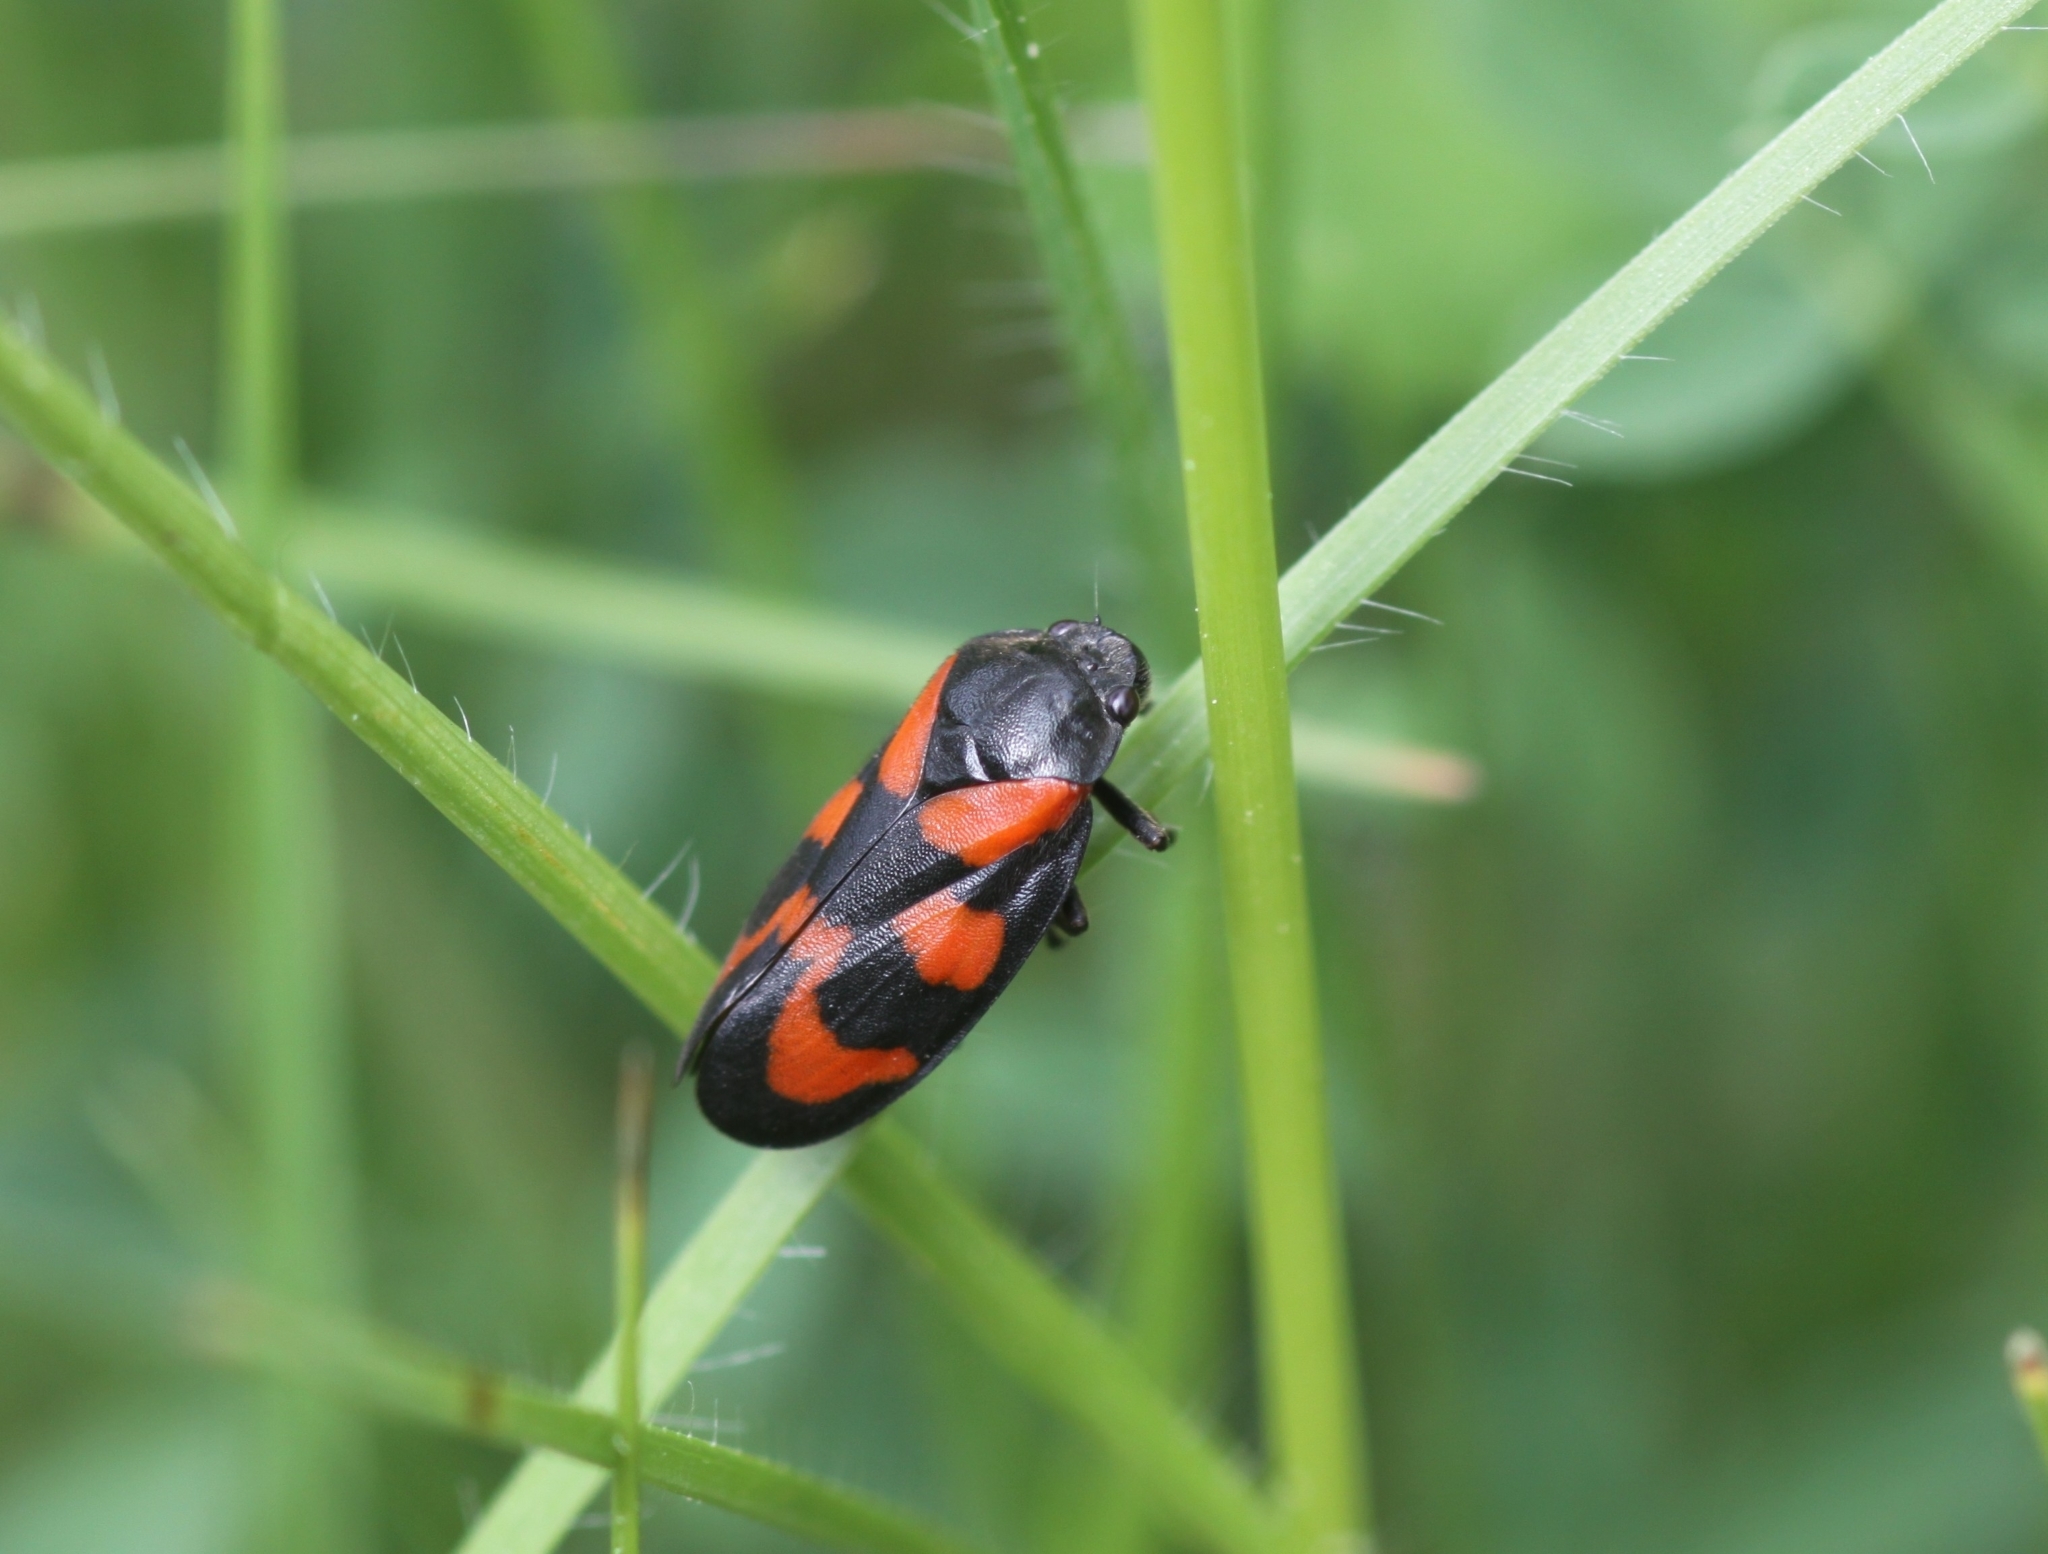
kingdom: Animalia
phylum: Arthropoda
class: Insecta
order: Hemiptera
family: Cercopidae
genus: Cercopis
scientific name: Cercopis vulnerata
